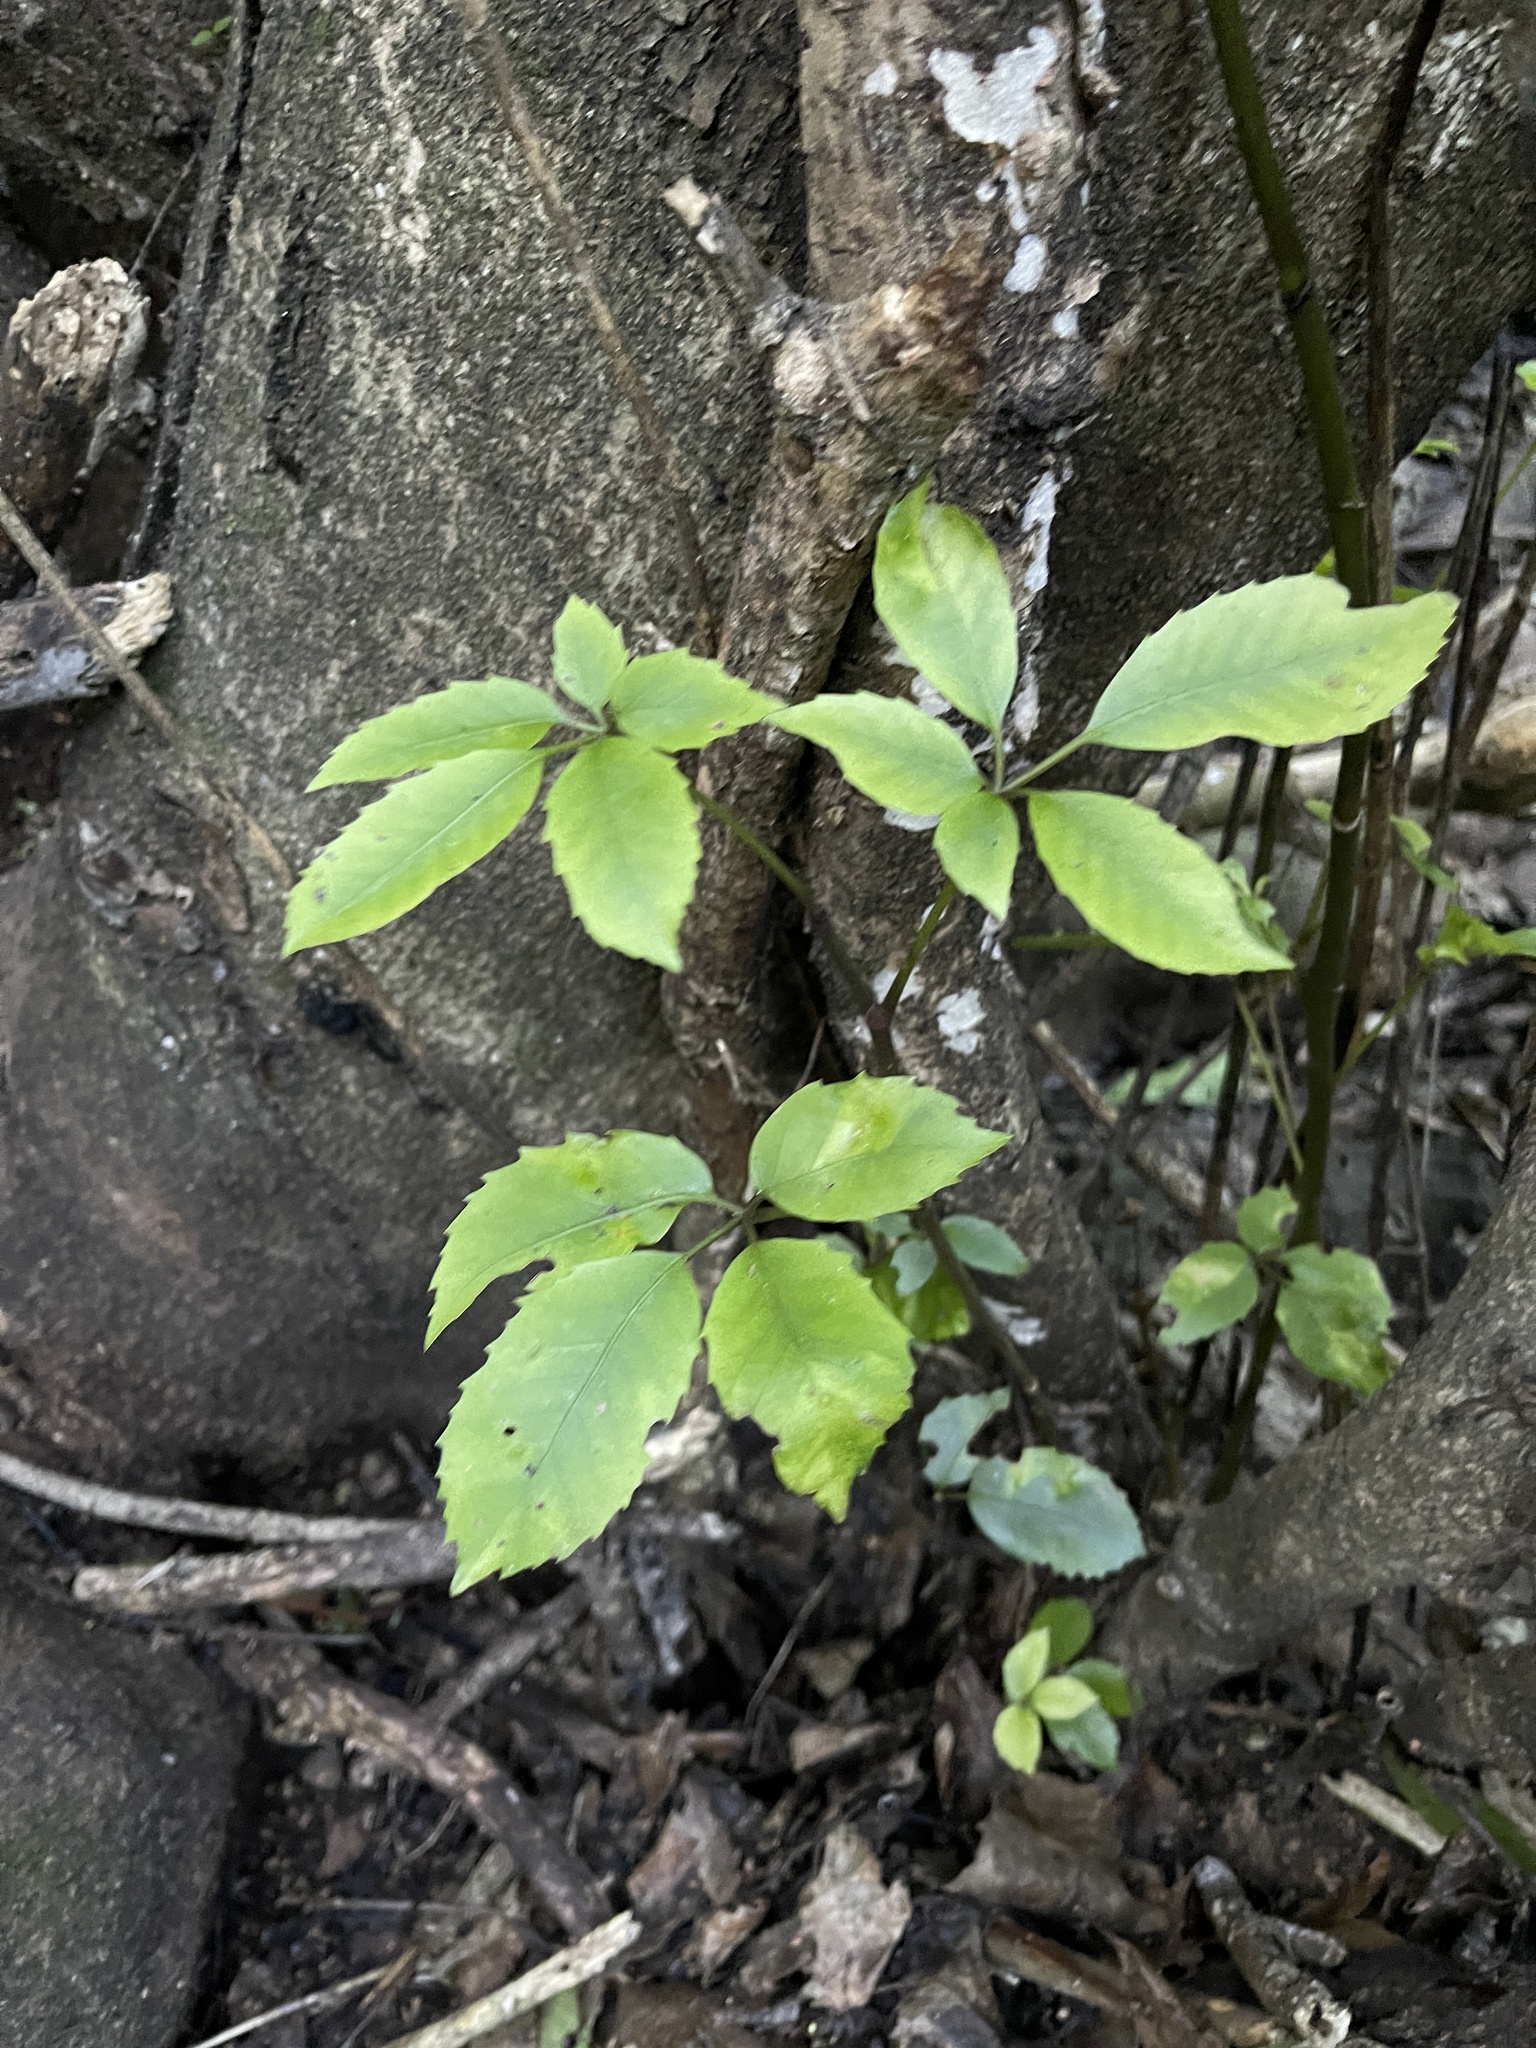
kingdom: Plantae
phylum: Tracheophyta
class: Magnoliopsida
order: Apiales
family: Araliaceae
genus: Neopanax
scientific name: Neopanax arboreus
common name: Five-fingers
